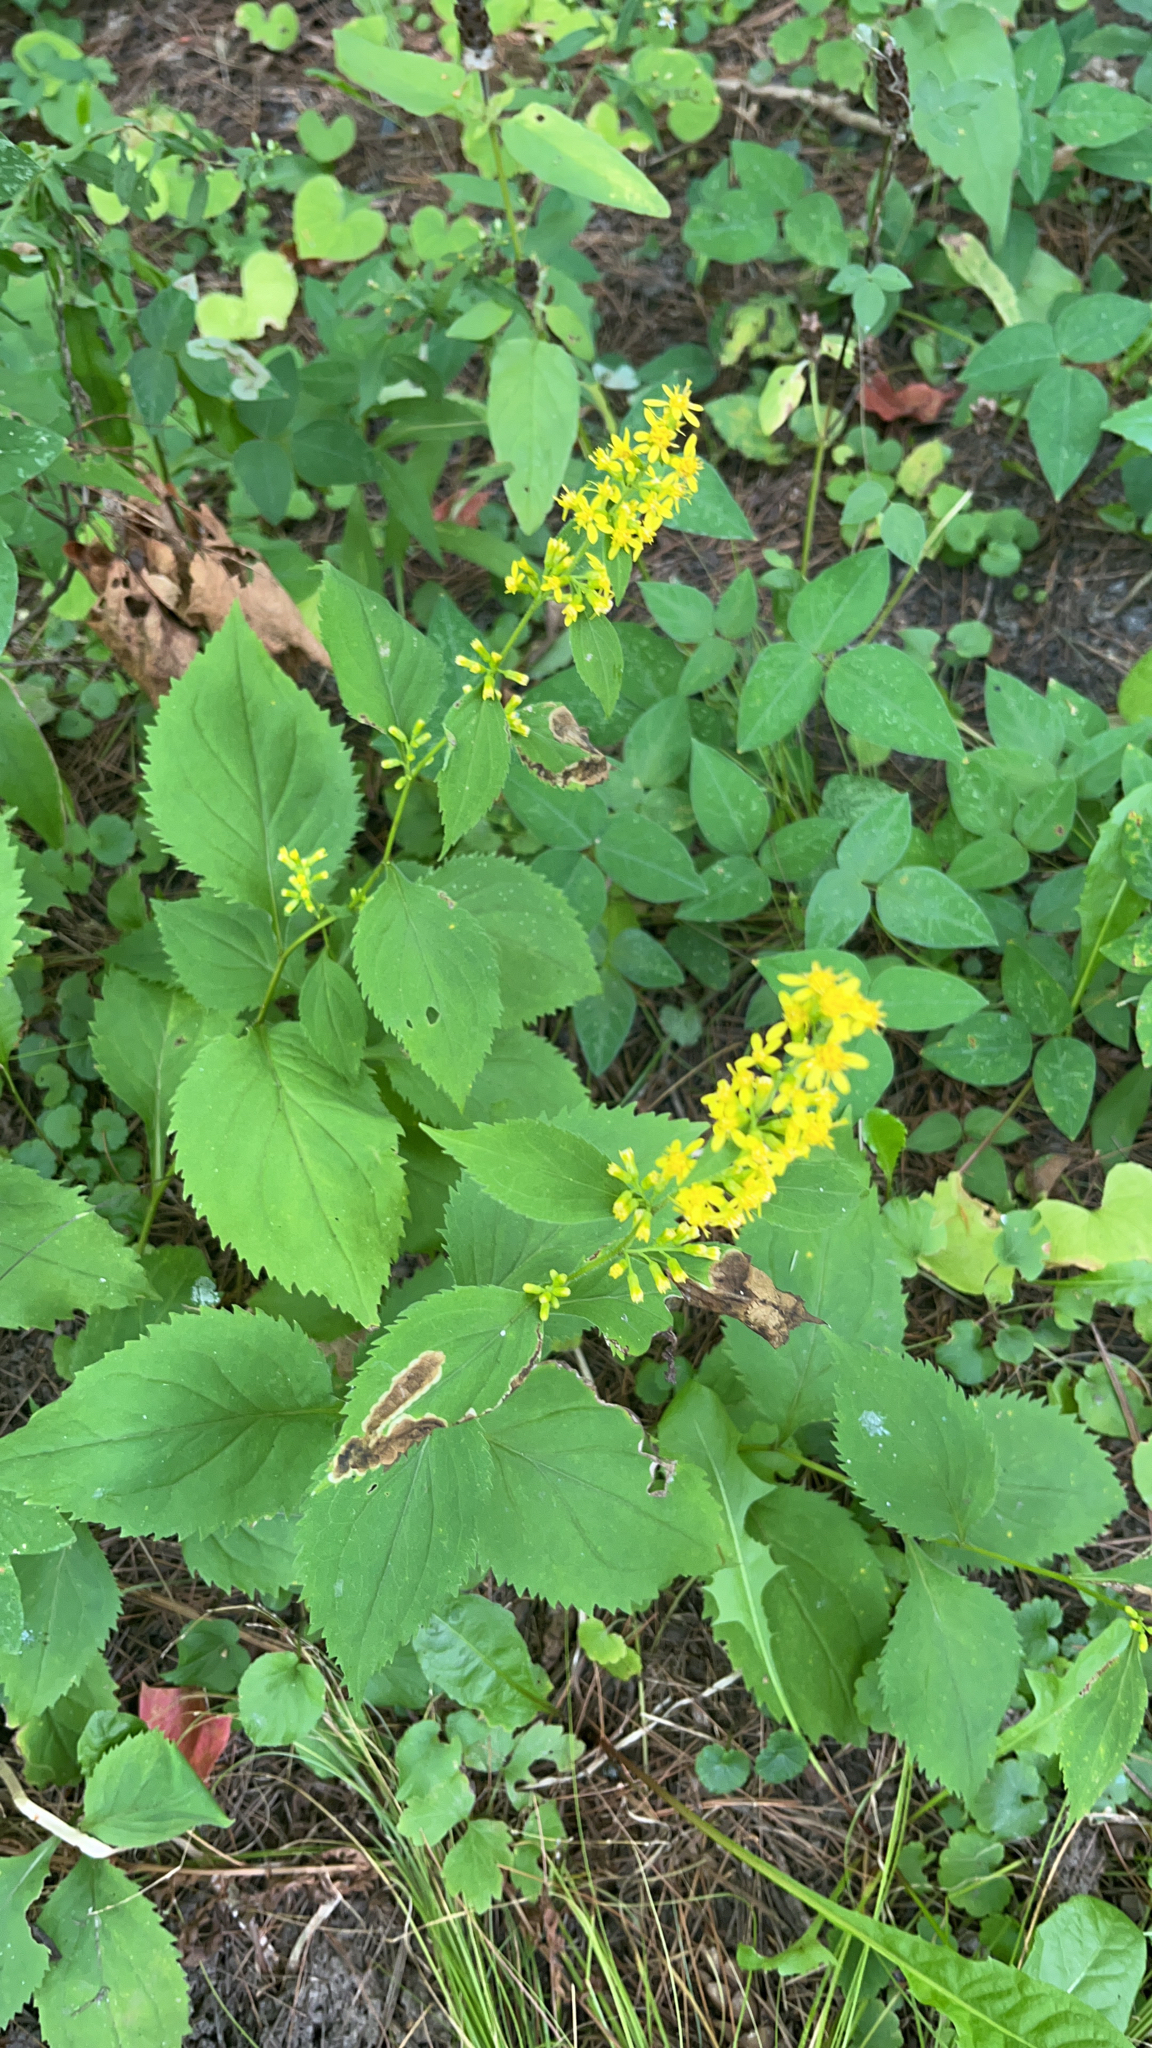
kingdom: Plantae
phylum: Tracheophyta
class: Magnoliopsida
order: Asterales
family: Asteraceae
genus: Solidago
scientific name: Solidago flexicaulis
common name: Zig-zag goldenrod
